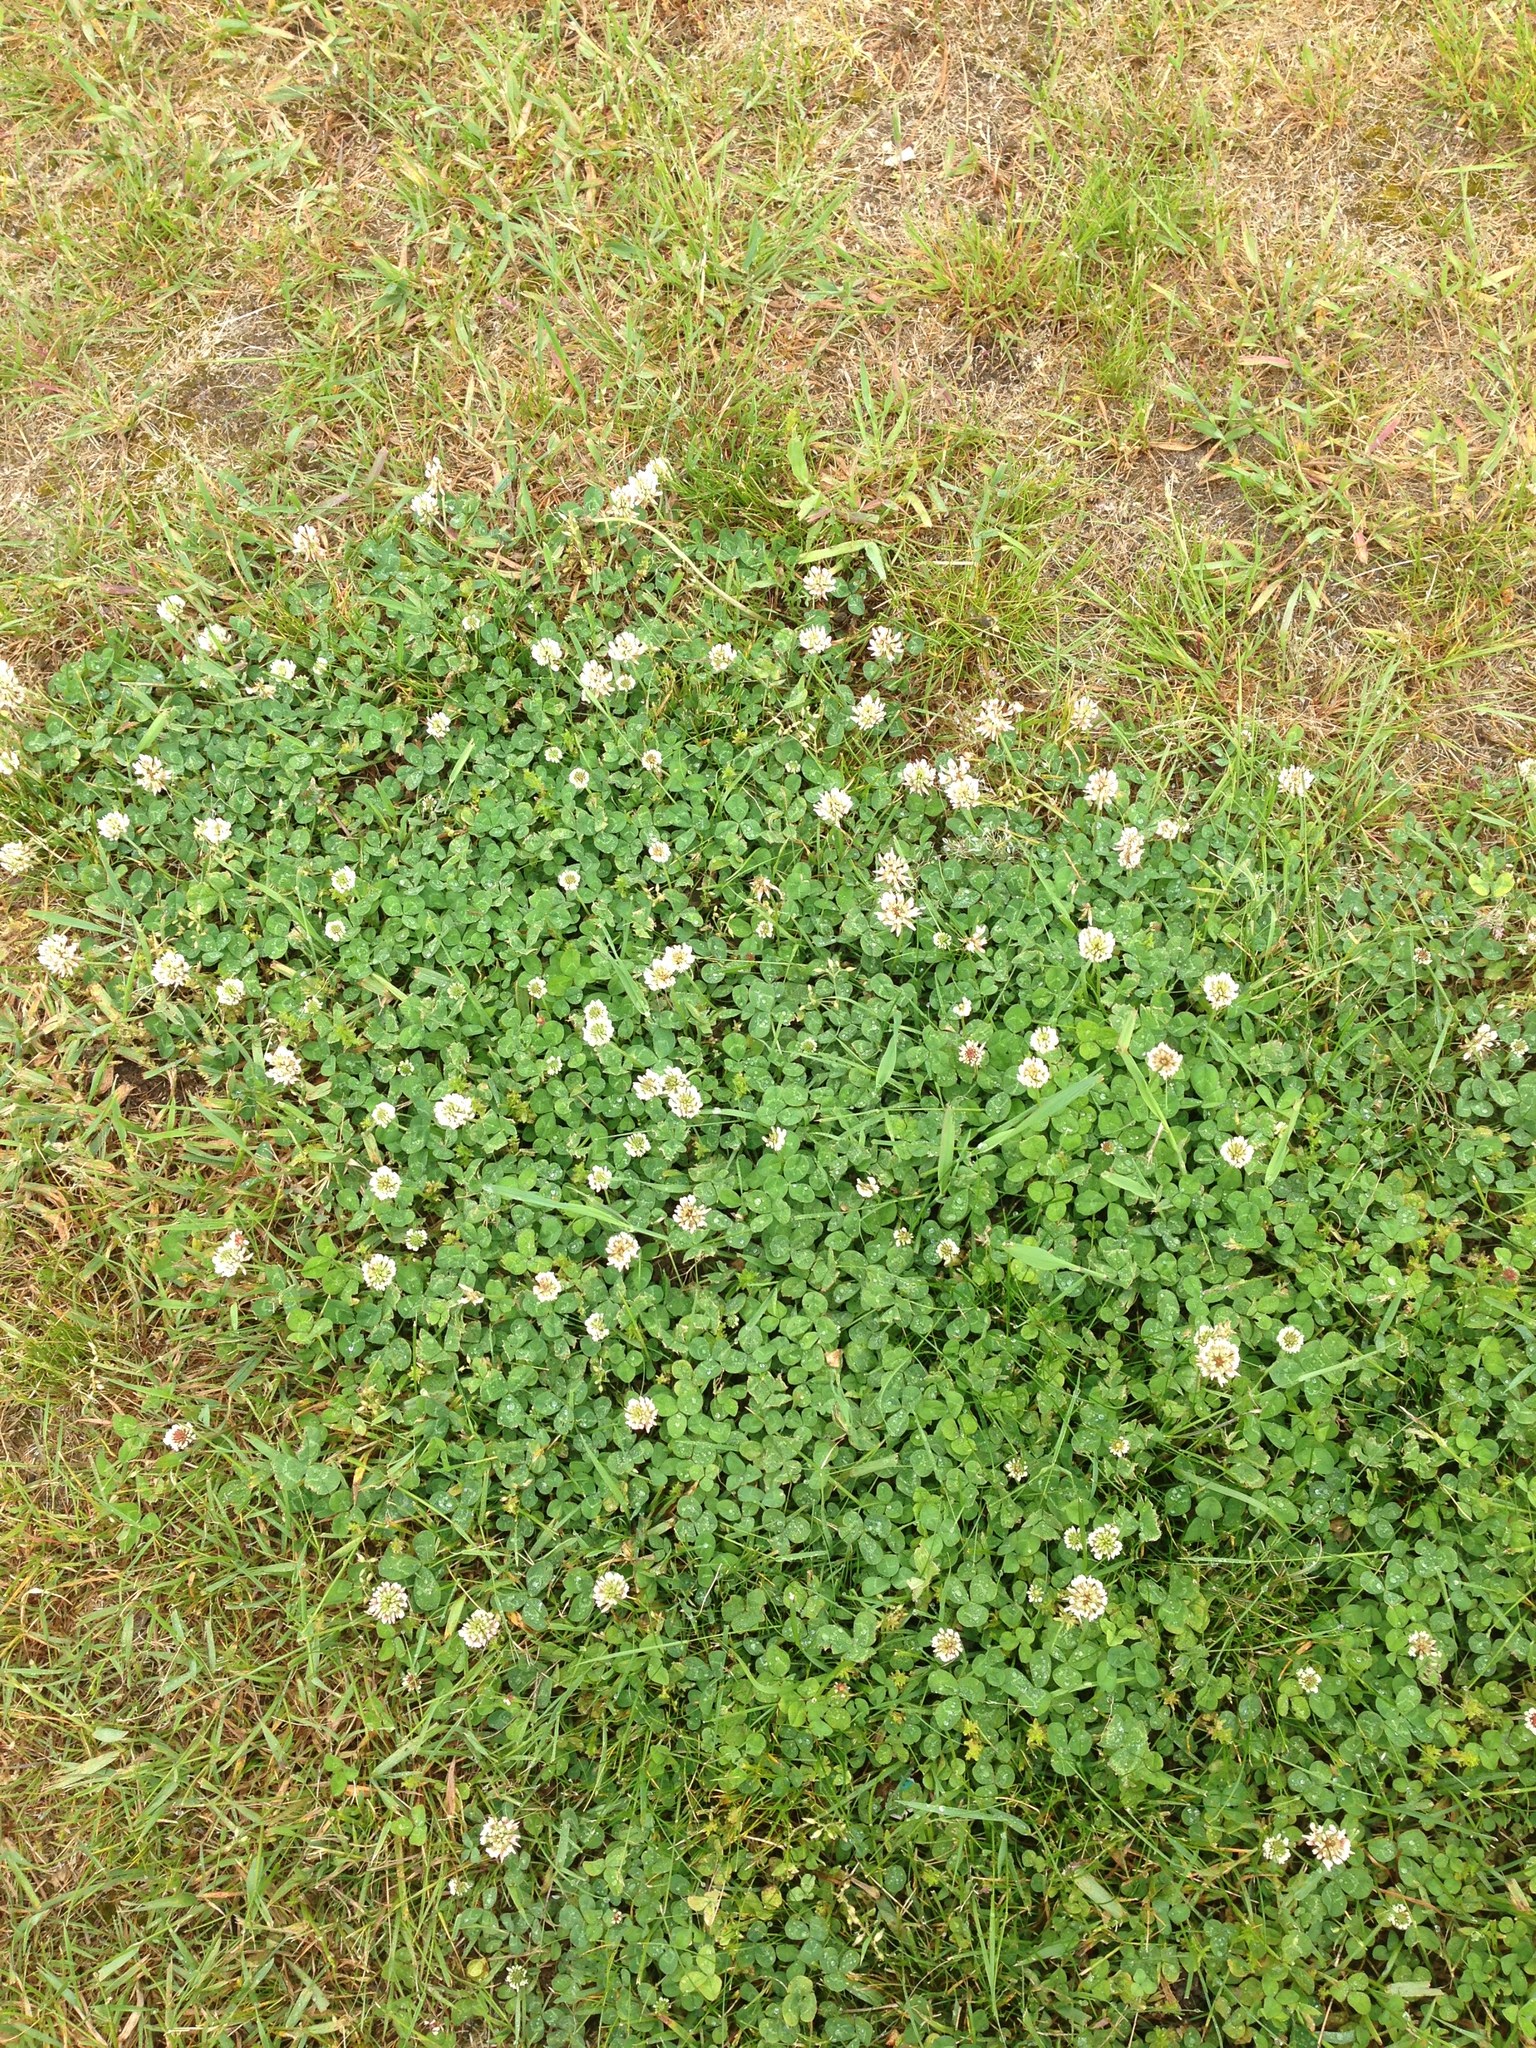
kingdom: Plantae
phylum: Tracheophyta
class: Magnoliopsida
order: Fabales
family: Fabaceae
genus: Trifolium
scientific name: Trifolium repens
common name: White clover
